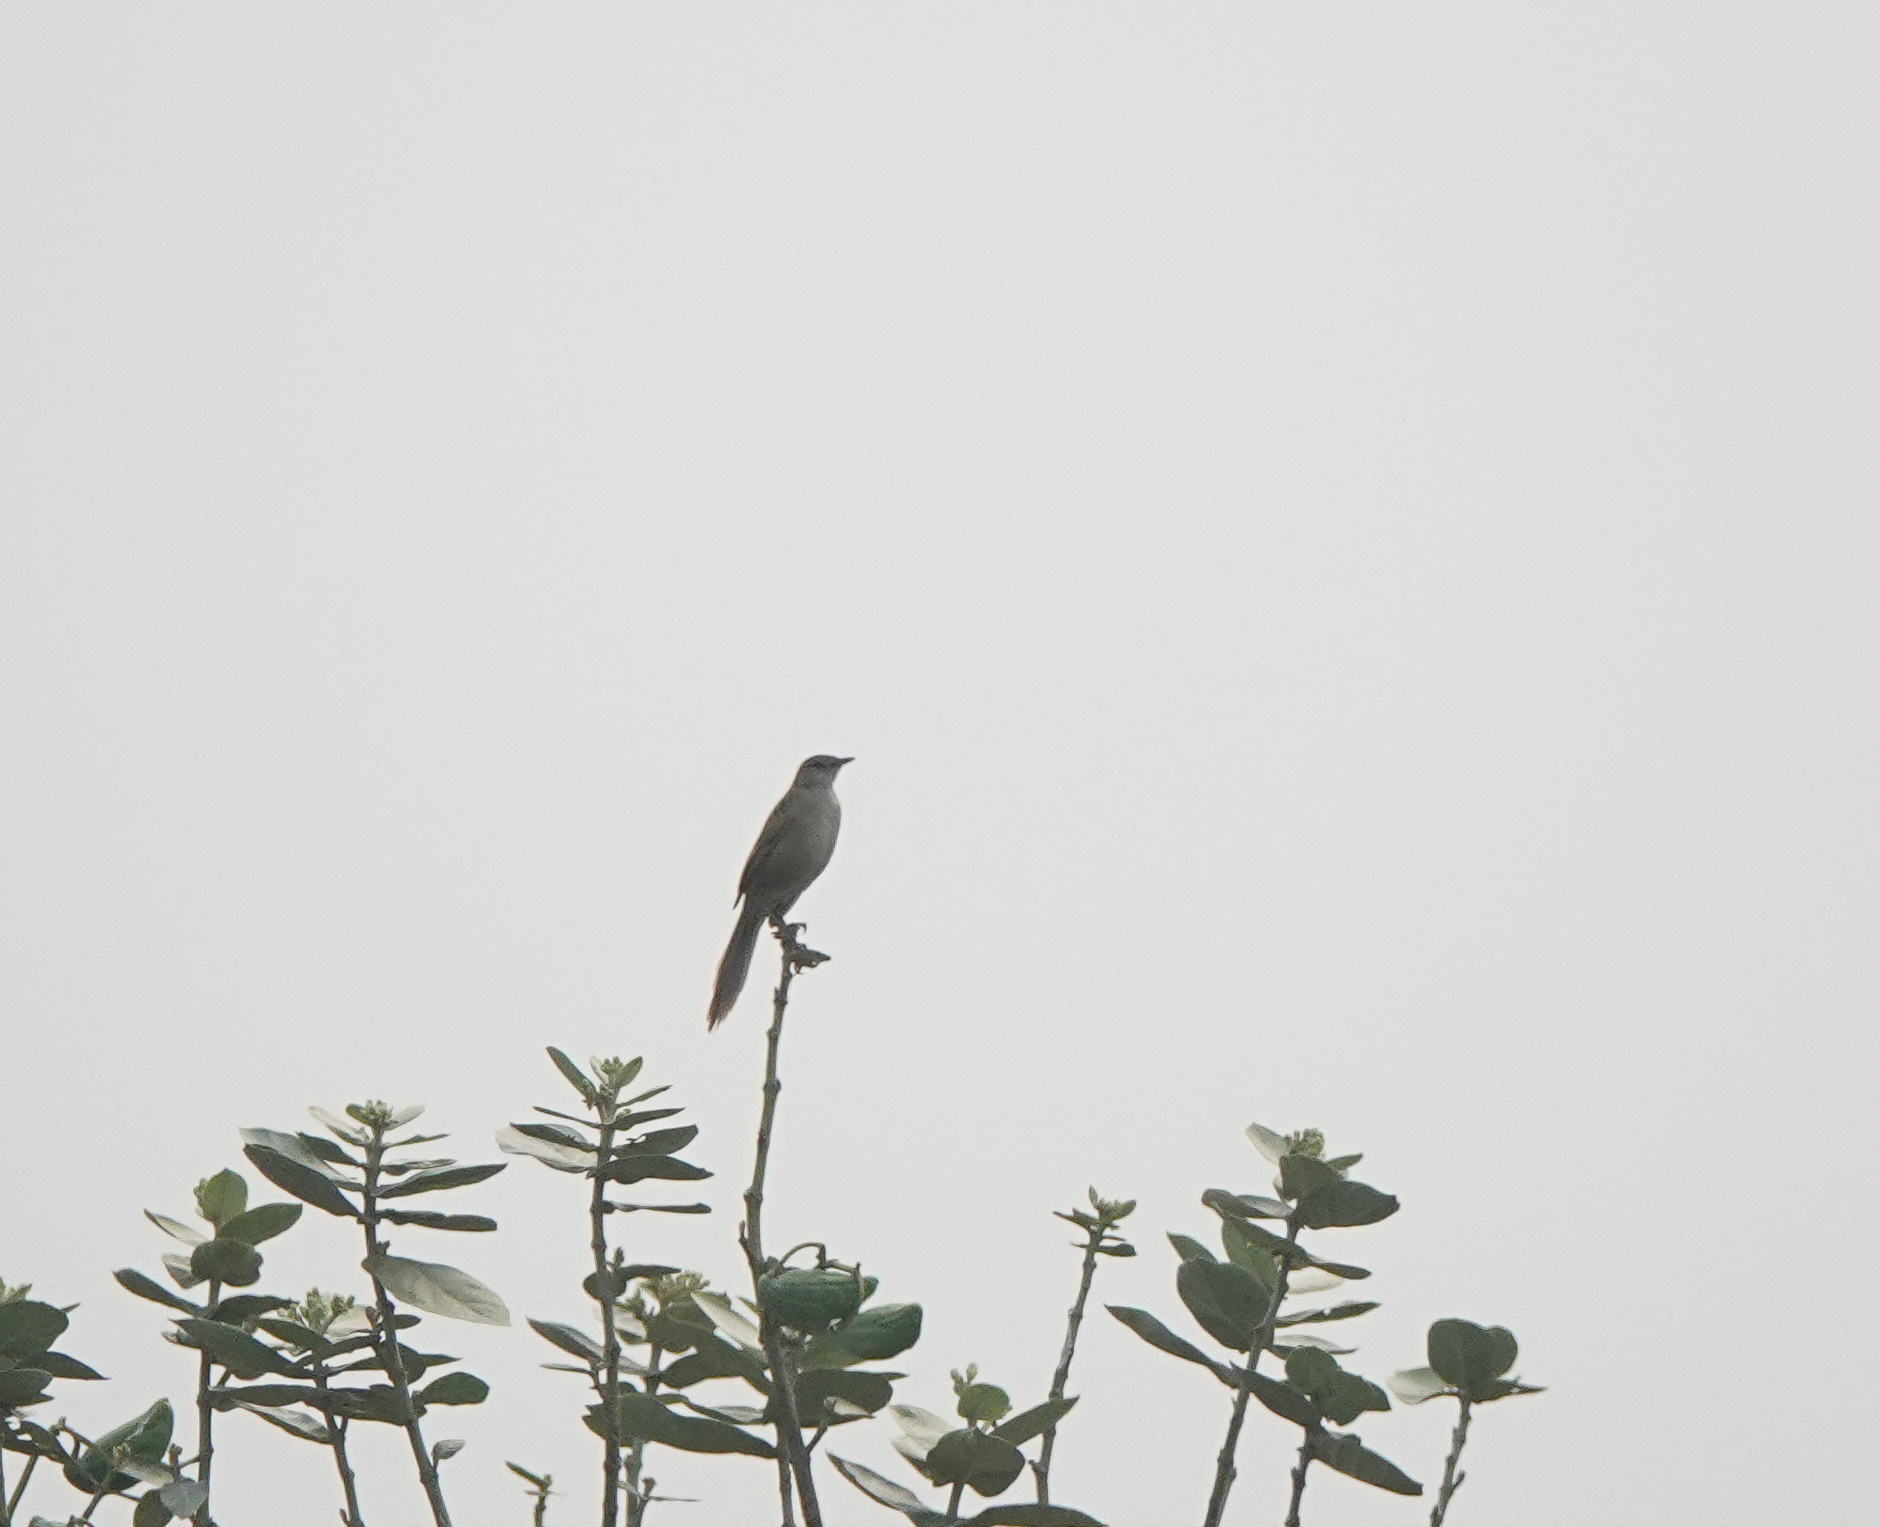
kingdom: Animalia
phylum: Chordata
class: Aves
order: Passeriformes
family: Locustellidae
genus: Megalurus
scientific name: Megalurus palustris
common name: Striated grassbird
